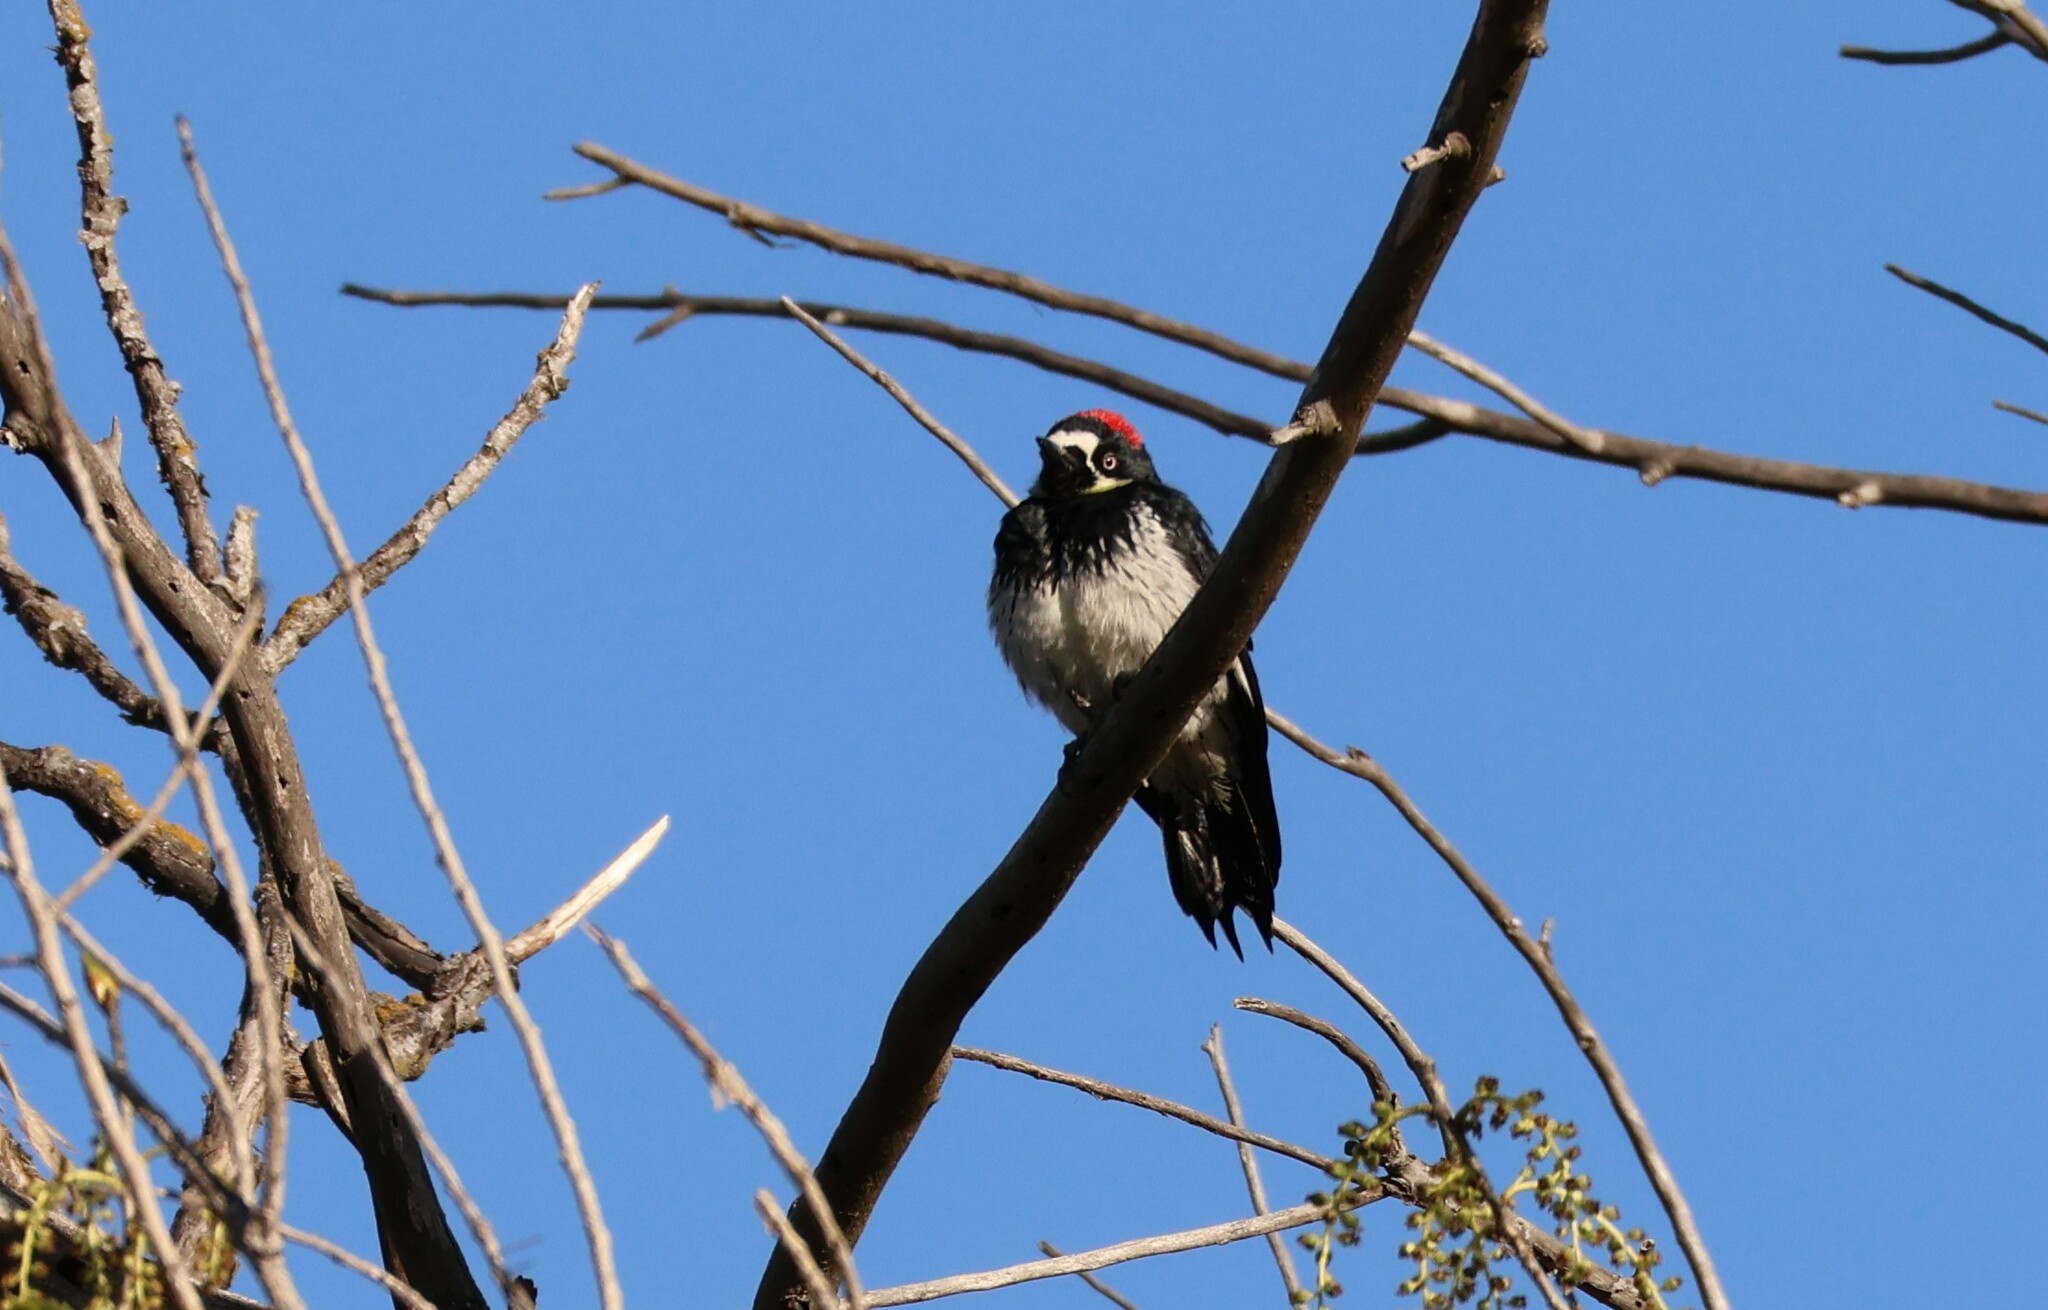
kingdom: Animalia
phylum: Chordata
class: Aves
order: Piciformes
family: Picidae
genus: Melanerpes
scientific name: Melanerpes formicivorus
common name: Acorn woodpecker
